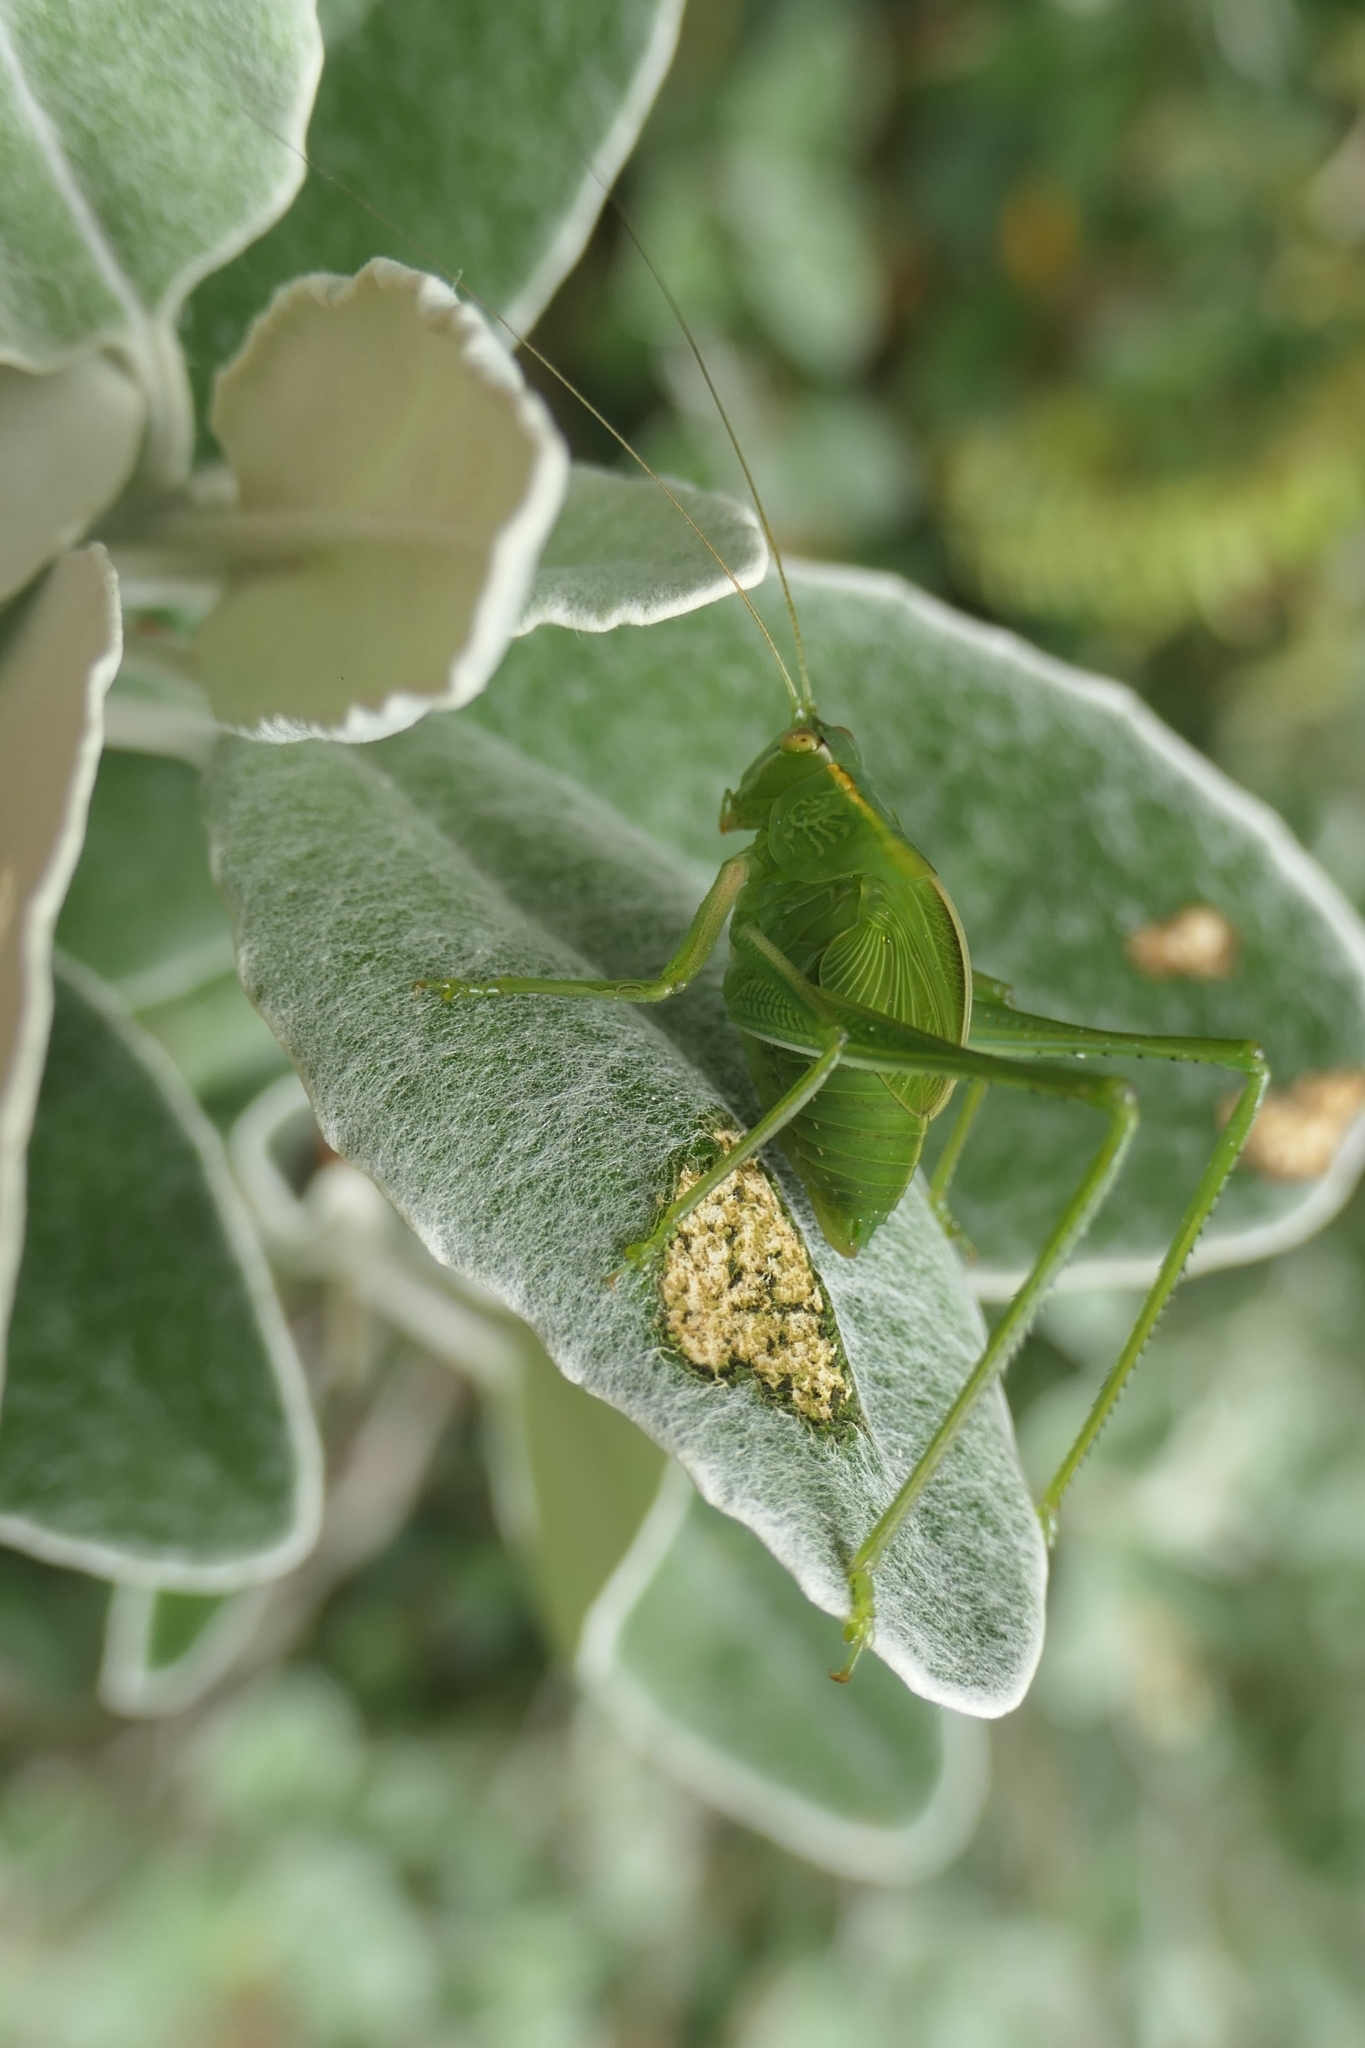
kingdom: Animalia
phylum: Arthropoda
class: Insecta
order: Orthoptera
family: Tettigoniidae
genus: Caedicia
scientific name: Caedicia simplex
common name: Common garden katydid
